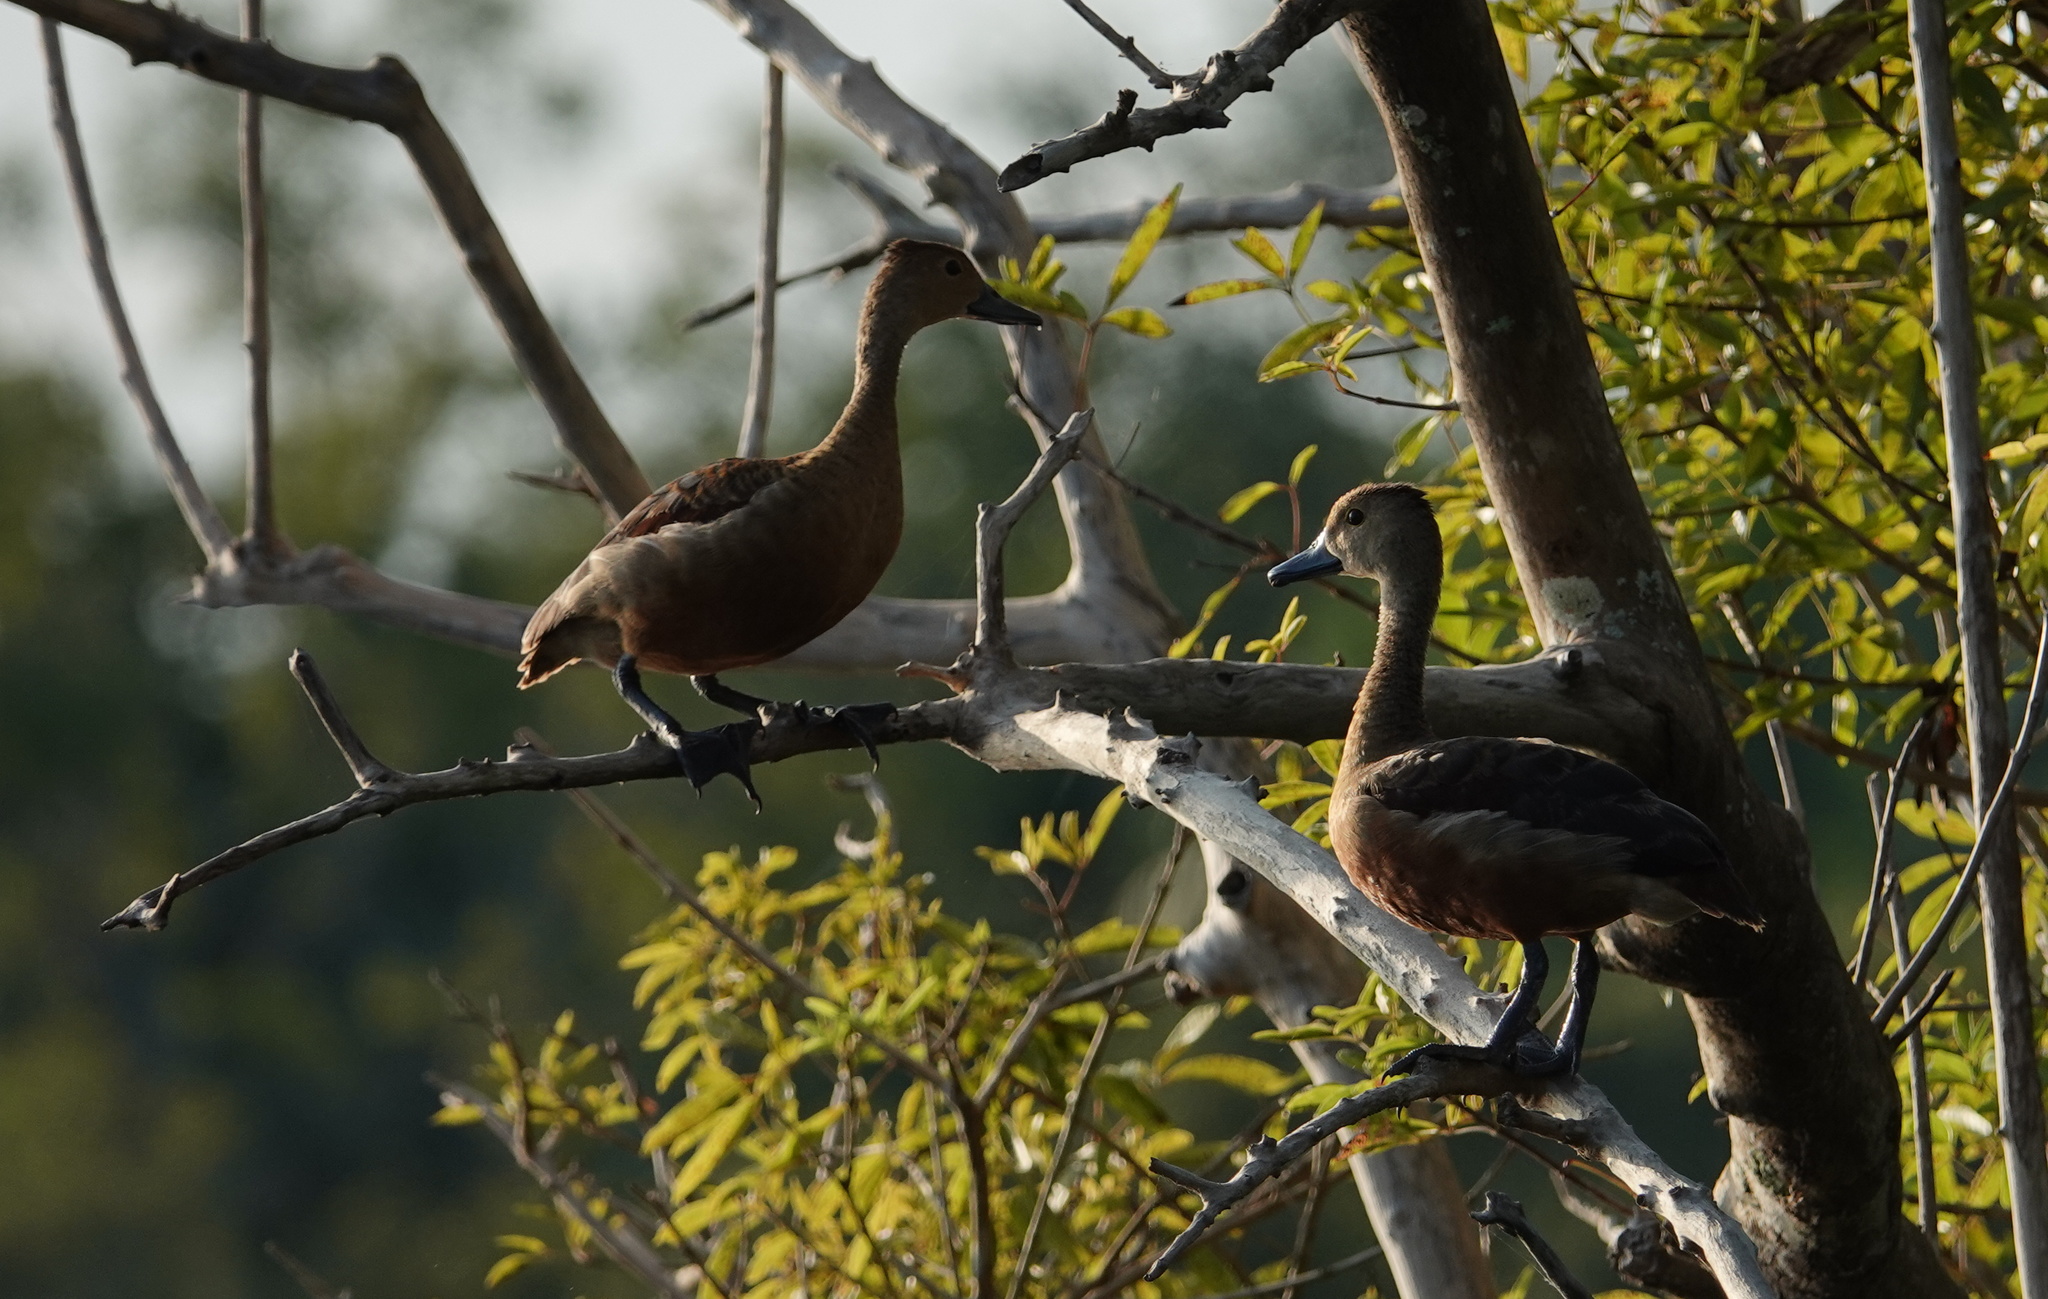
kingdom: Animalia
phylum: Chordata
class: Aves
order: Anseriformes
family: Anatidae
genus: Dendrocygna
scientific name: Dendrocygna javanica
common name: Lesser whistling-duck
